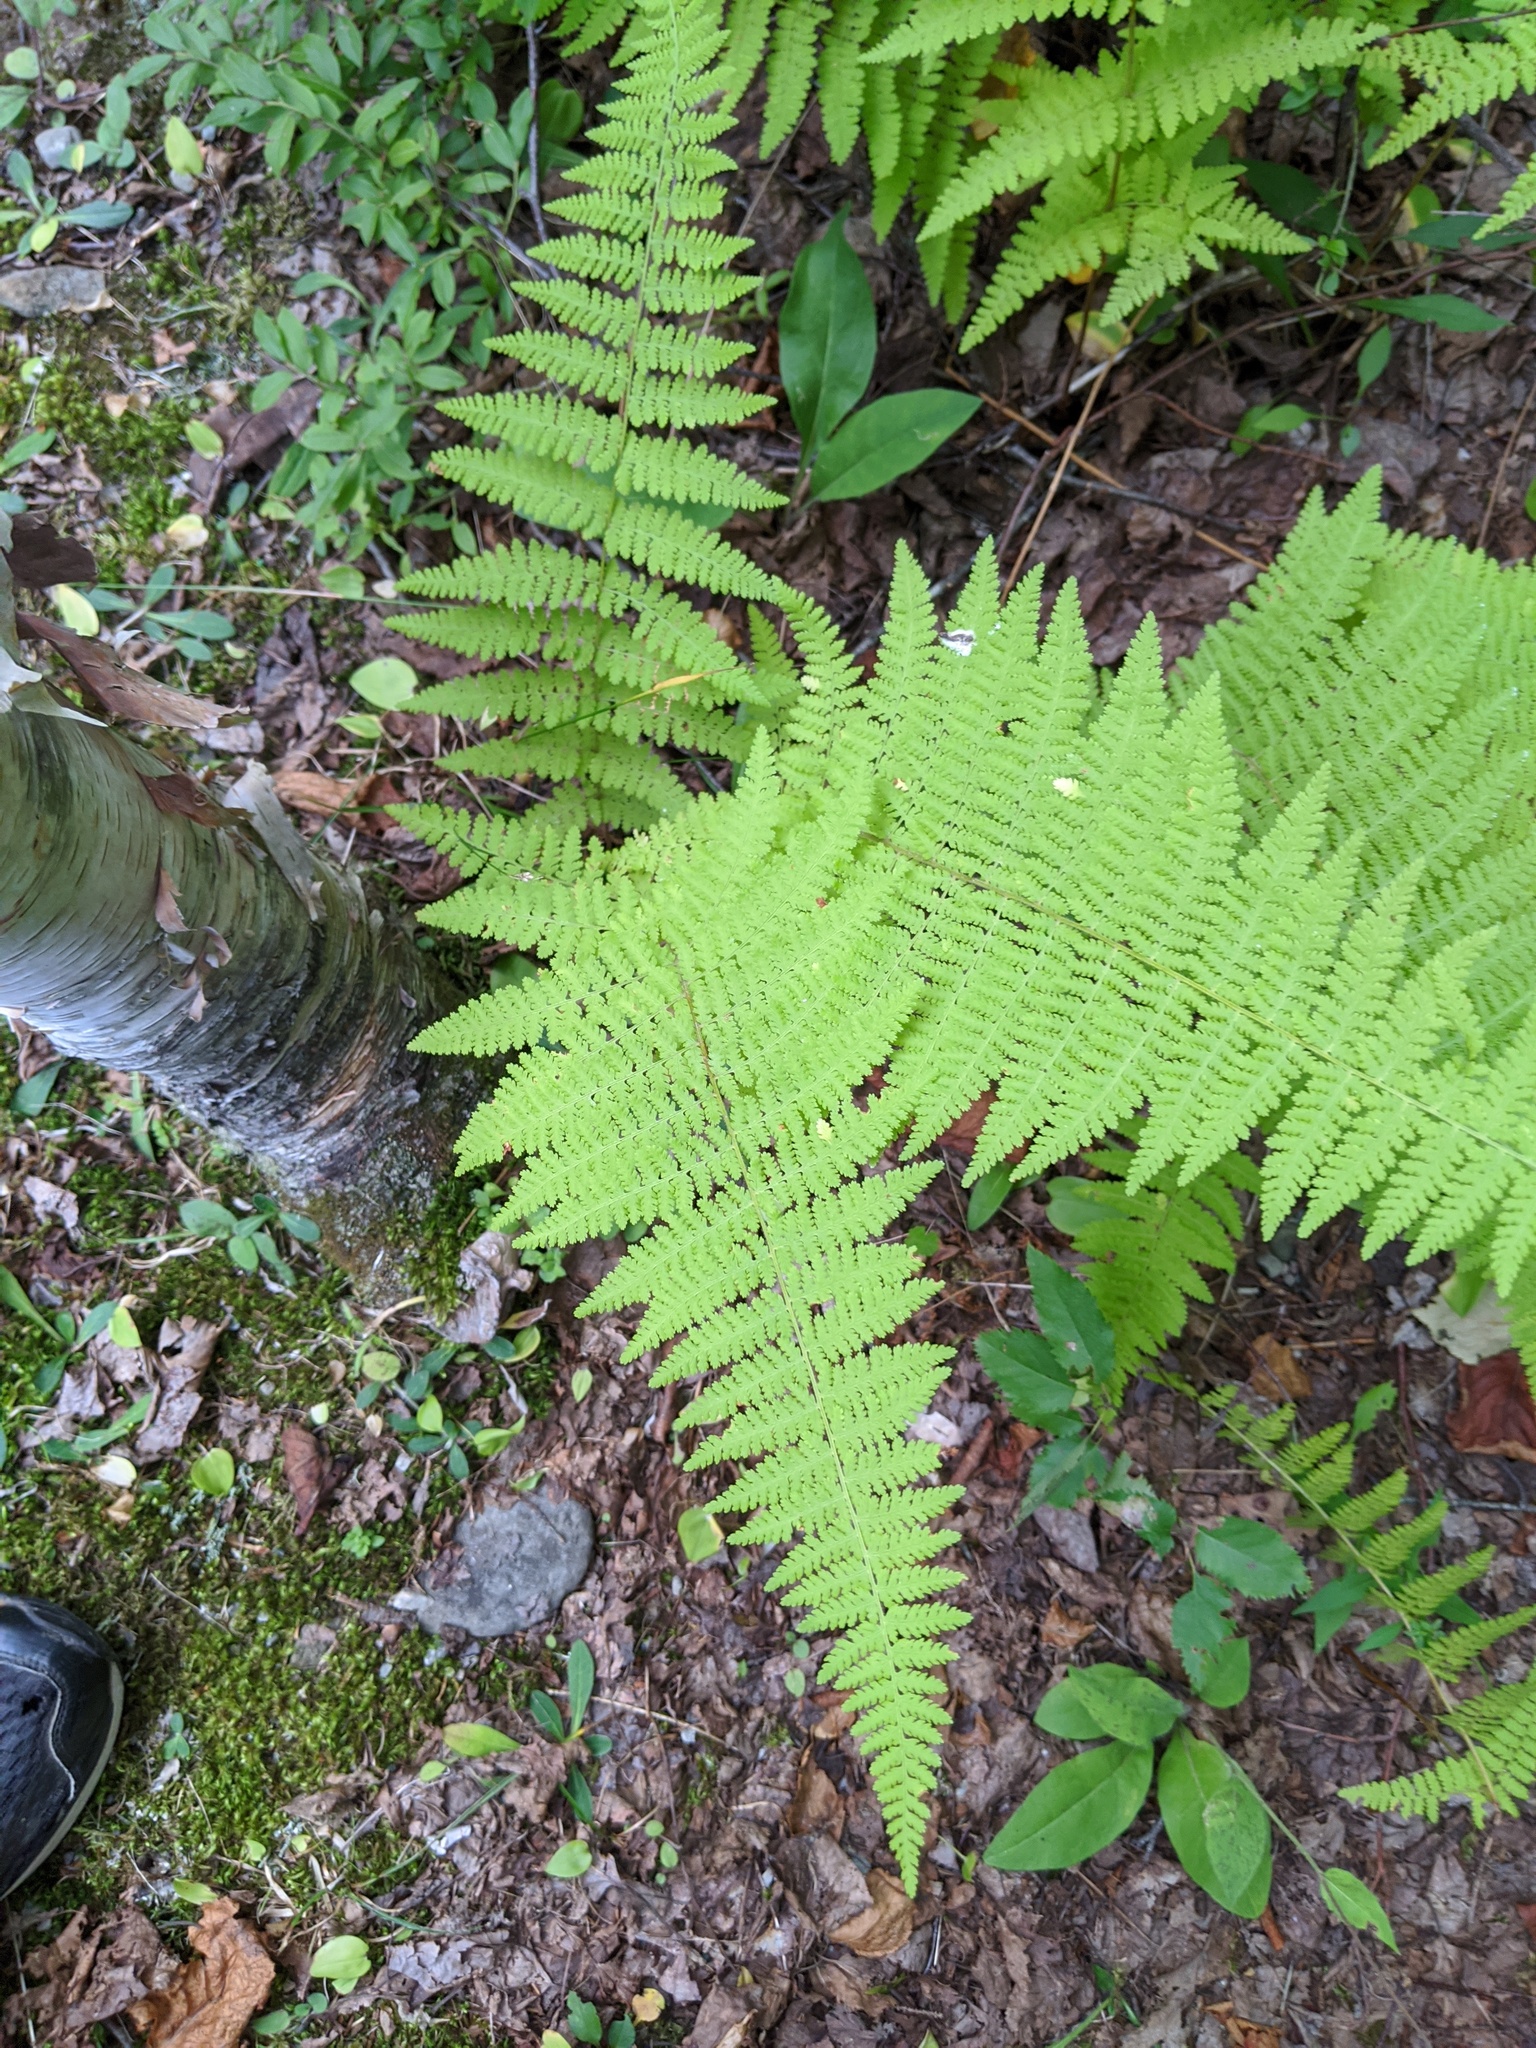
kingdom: Plantae
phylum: Tracheophyta
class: Polypodiopsida
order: Polypodiales
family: Dennstaedtiaceae
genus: Sitobolium
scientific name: Sitobolium punctilobum
